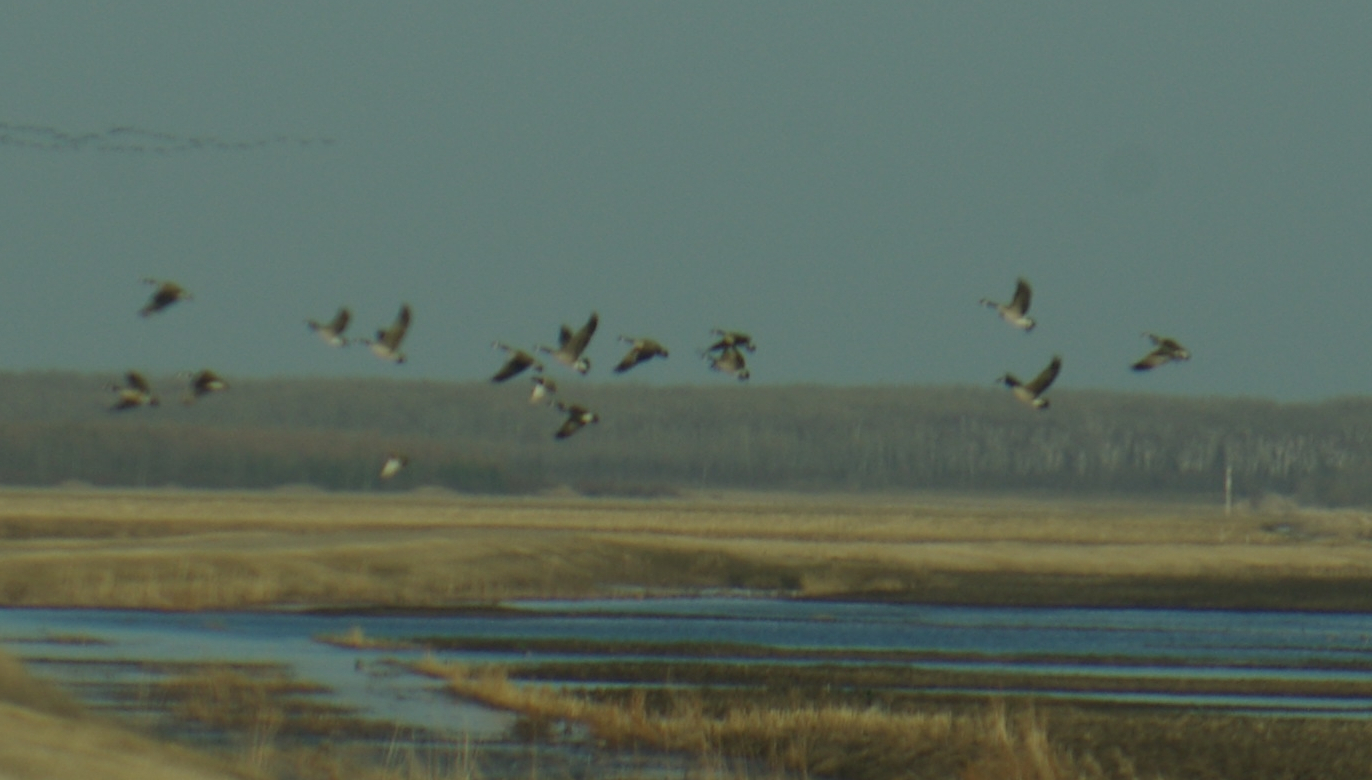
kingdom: Animalia
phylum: Chordata
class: Aves
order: Anseriformes
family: Anatidae
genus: Branta
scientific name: Branta canadensis
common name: Canada goose
